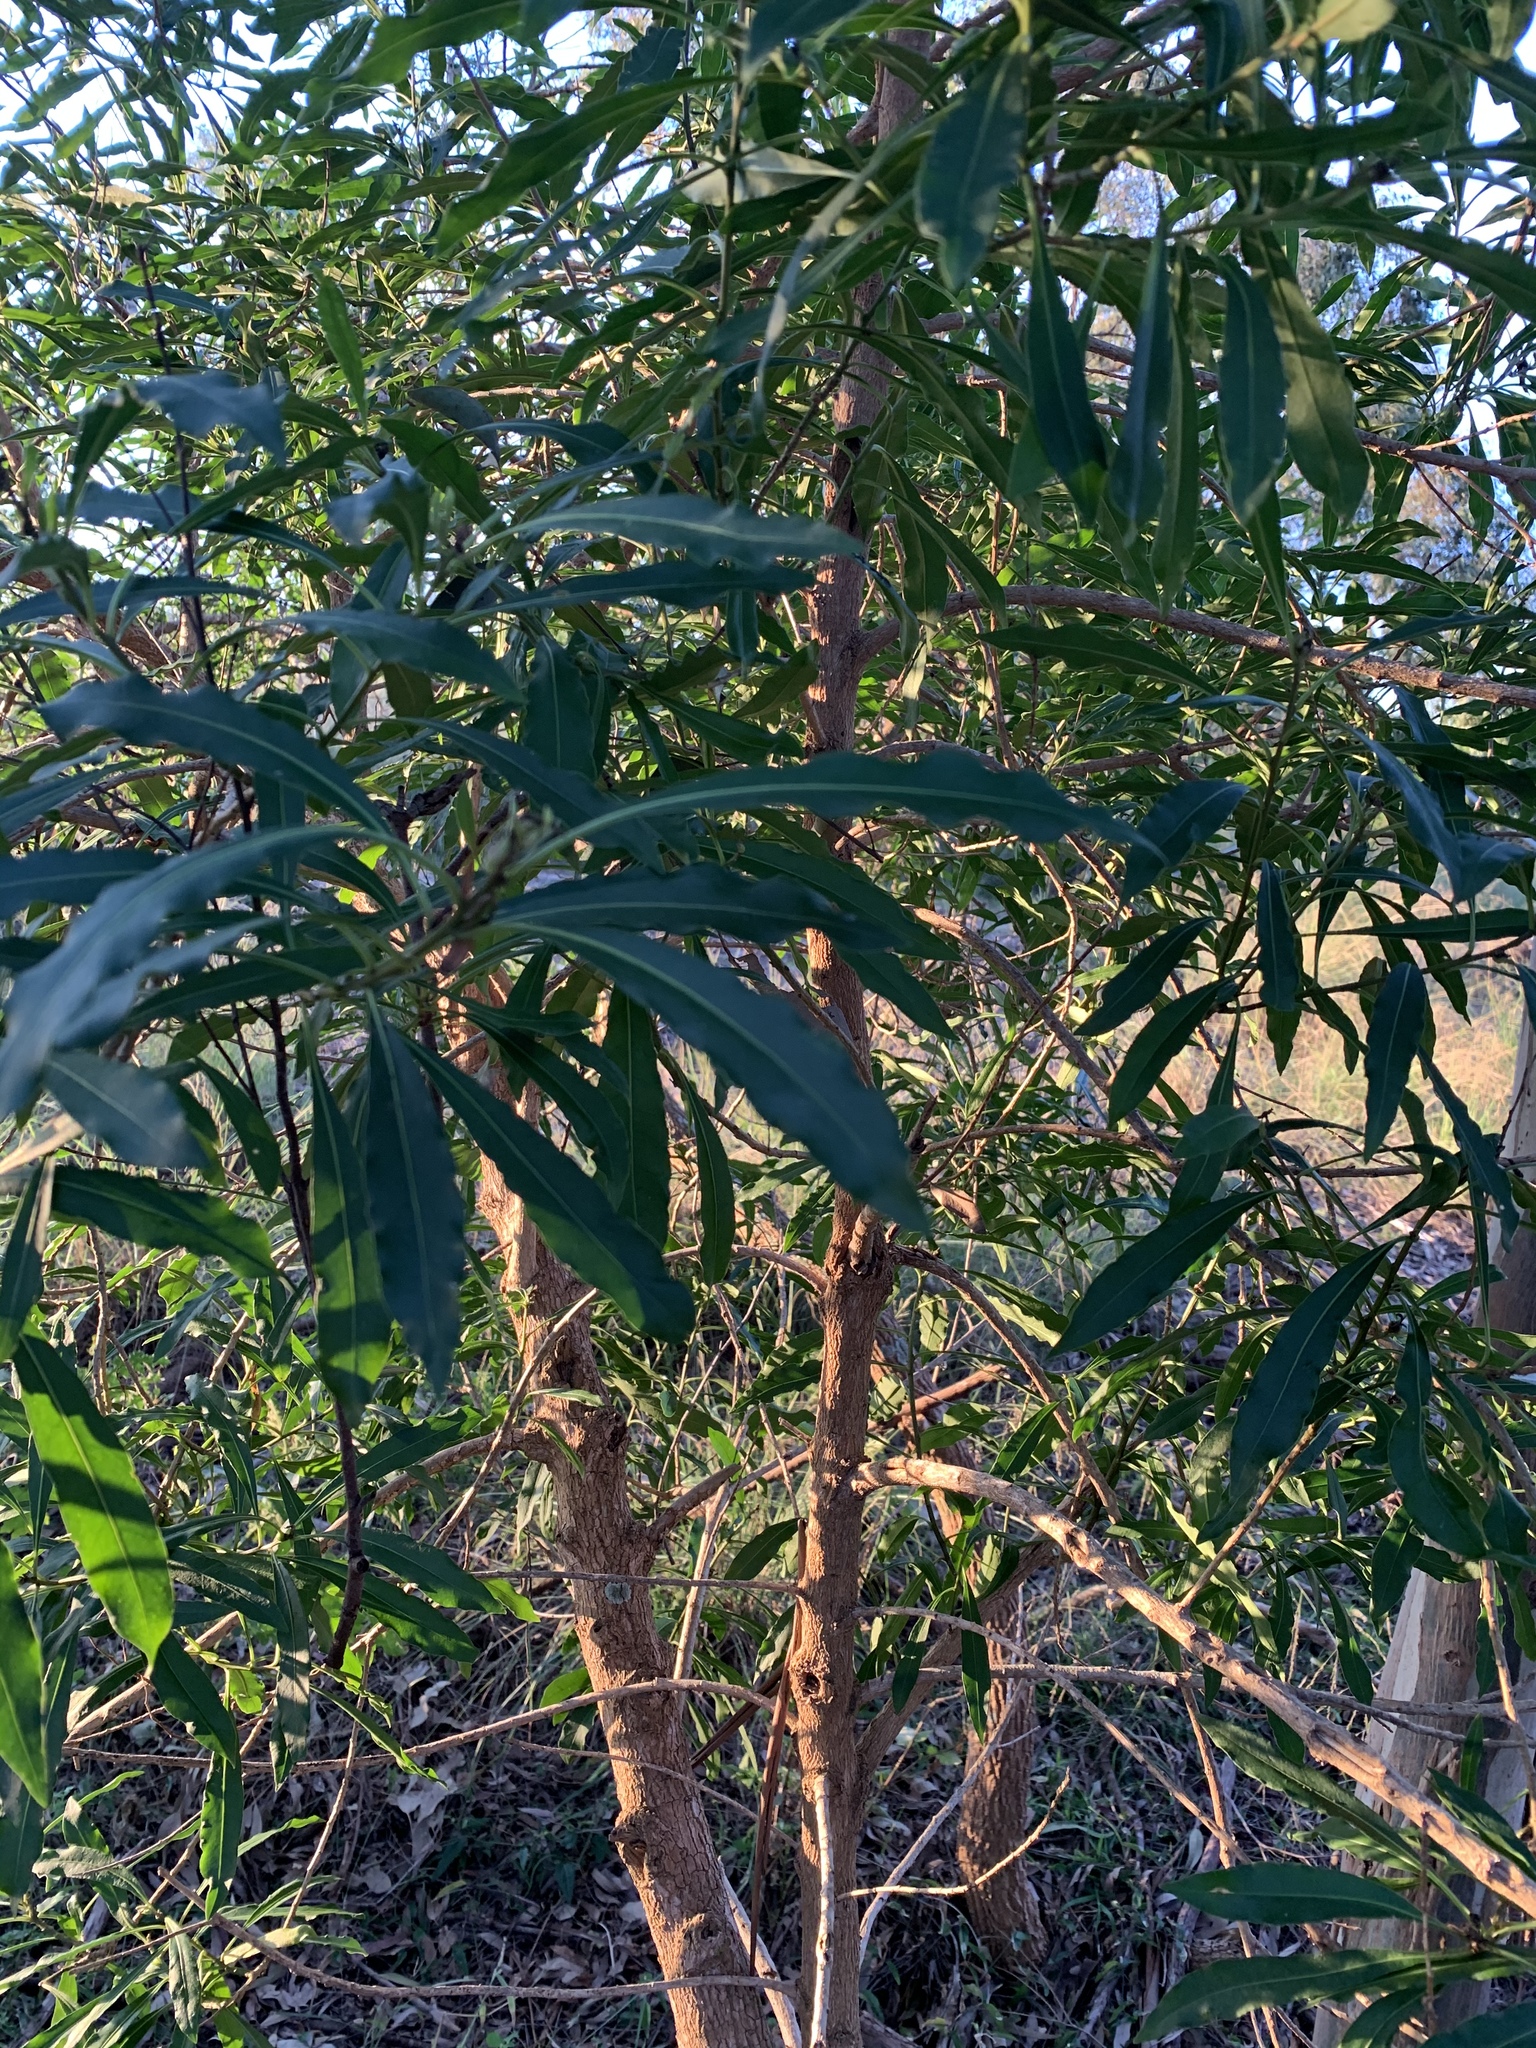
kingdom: Plantae
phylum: Tracheophyta
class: Magnoliopsida
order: Solanales
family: Solanaceae
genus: Duboisia
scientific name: Duboisia myoporoides
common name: Corkwoodtree
